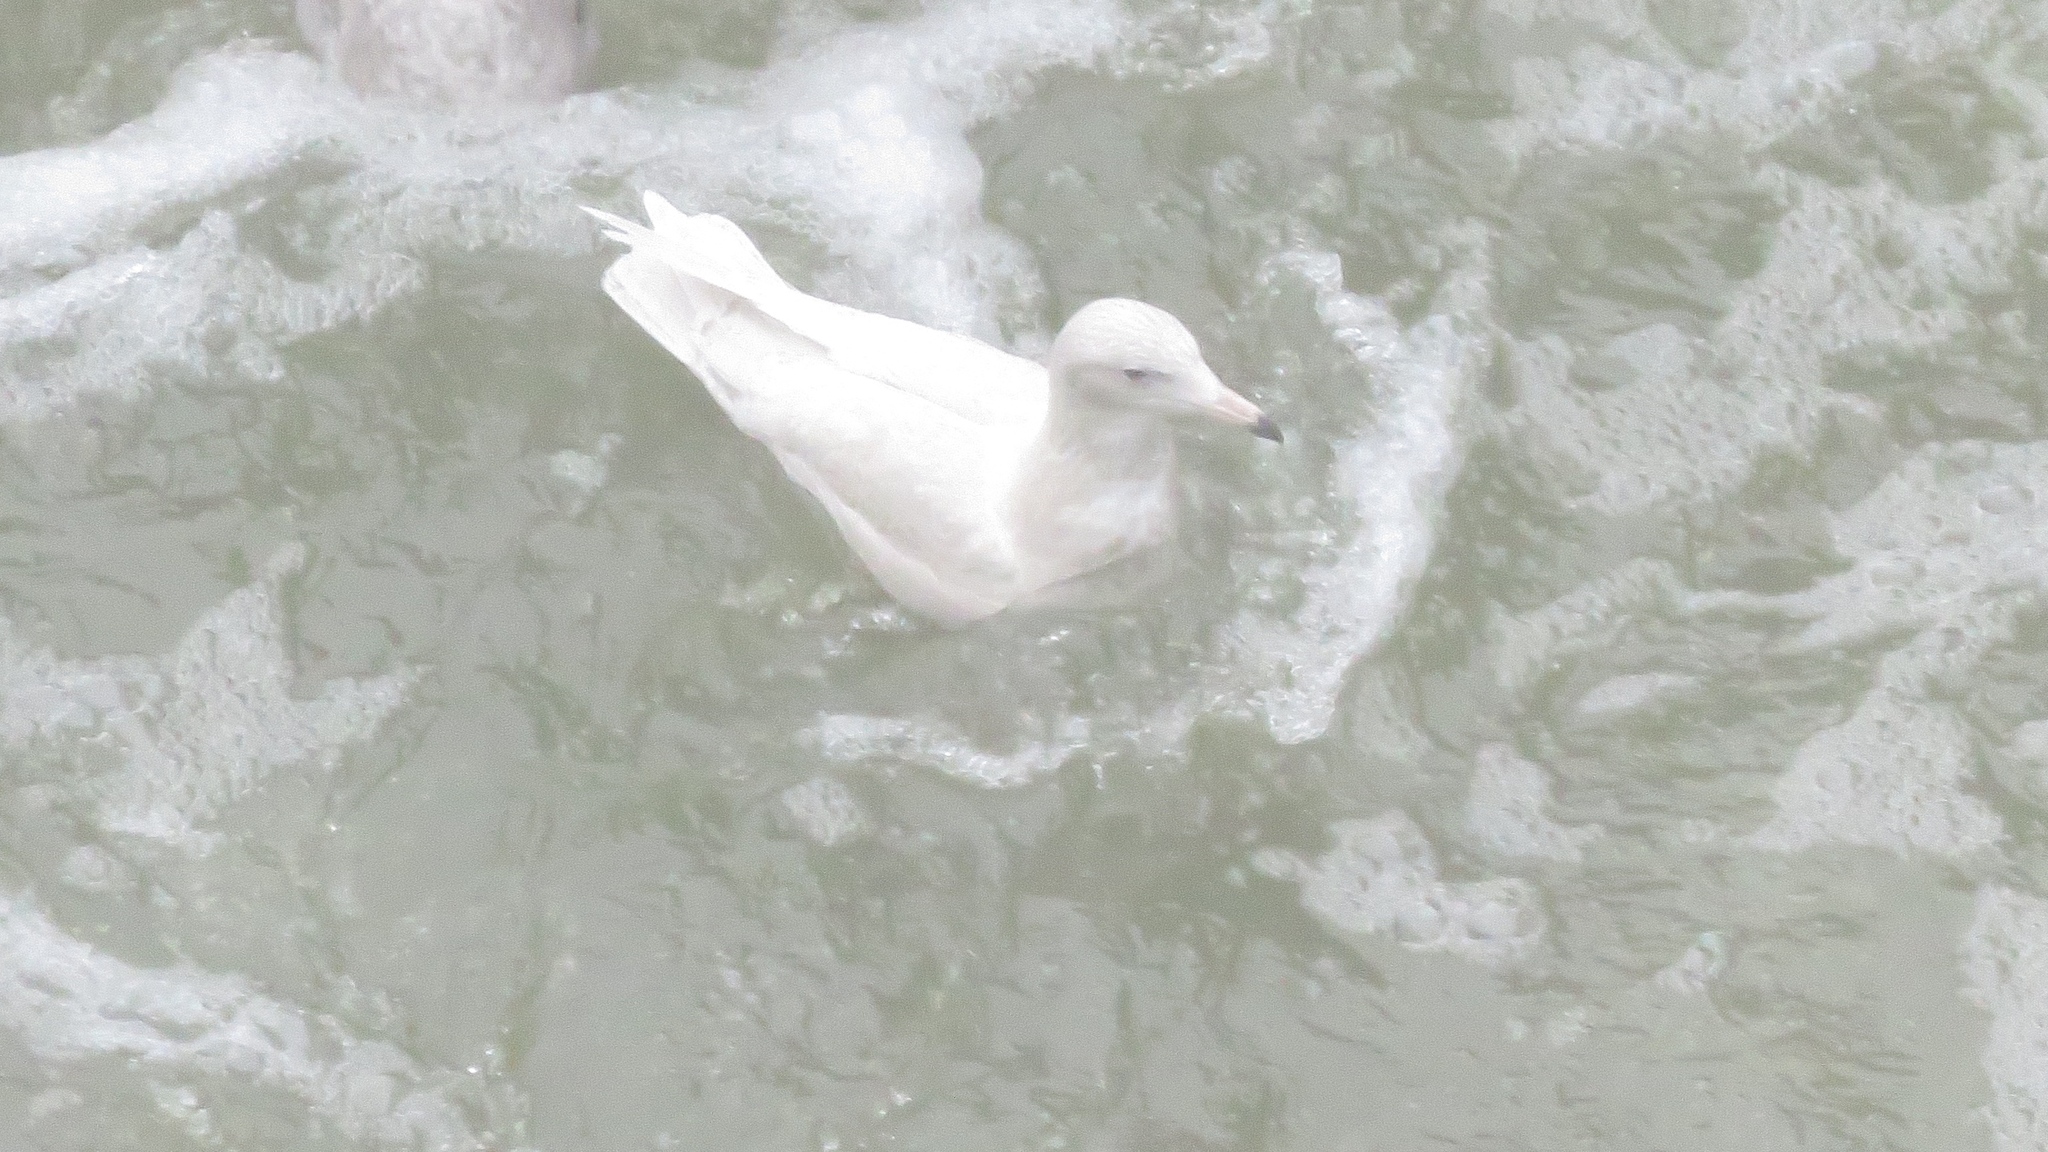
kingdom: Animalia
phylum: Chordata
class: Aves
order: Charadriiformes
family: Laridae
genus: Larus
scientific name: Larus hyperboreus
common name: Glaucous gull
